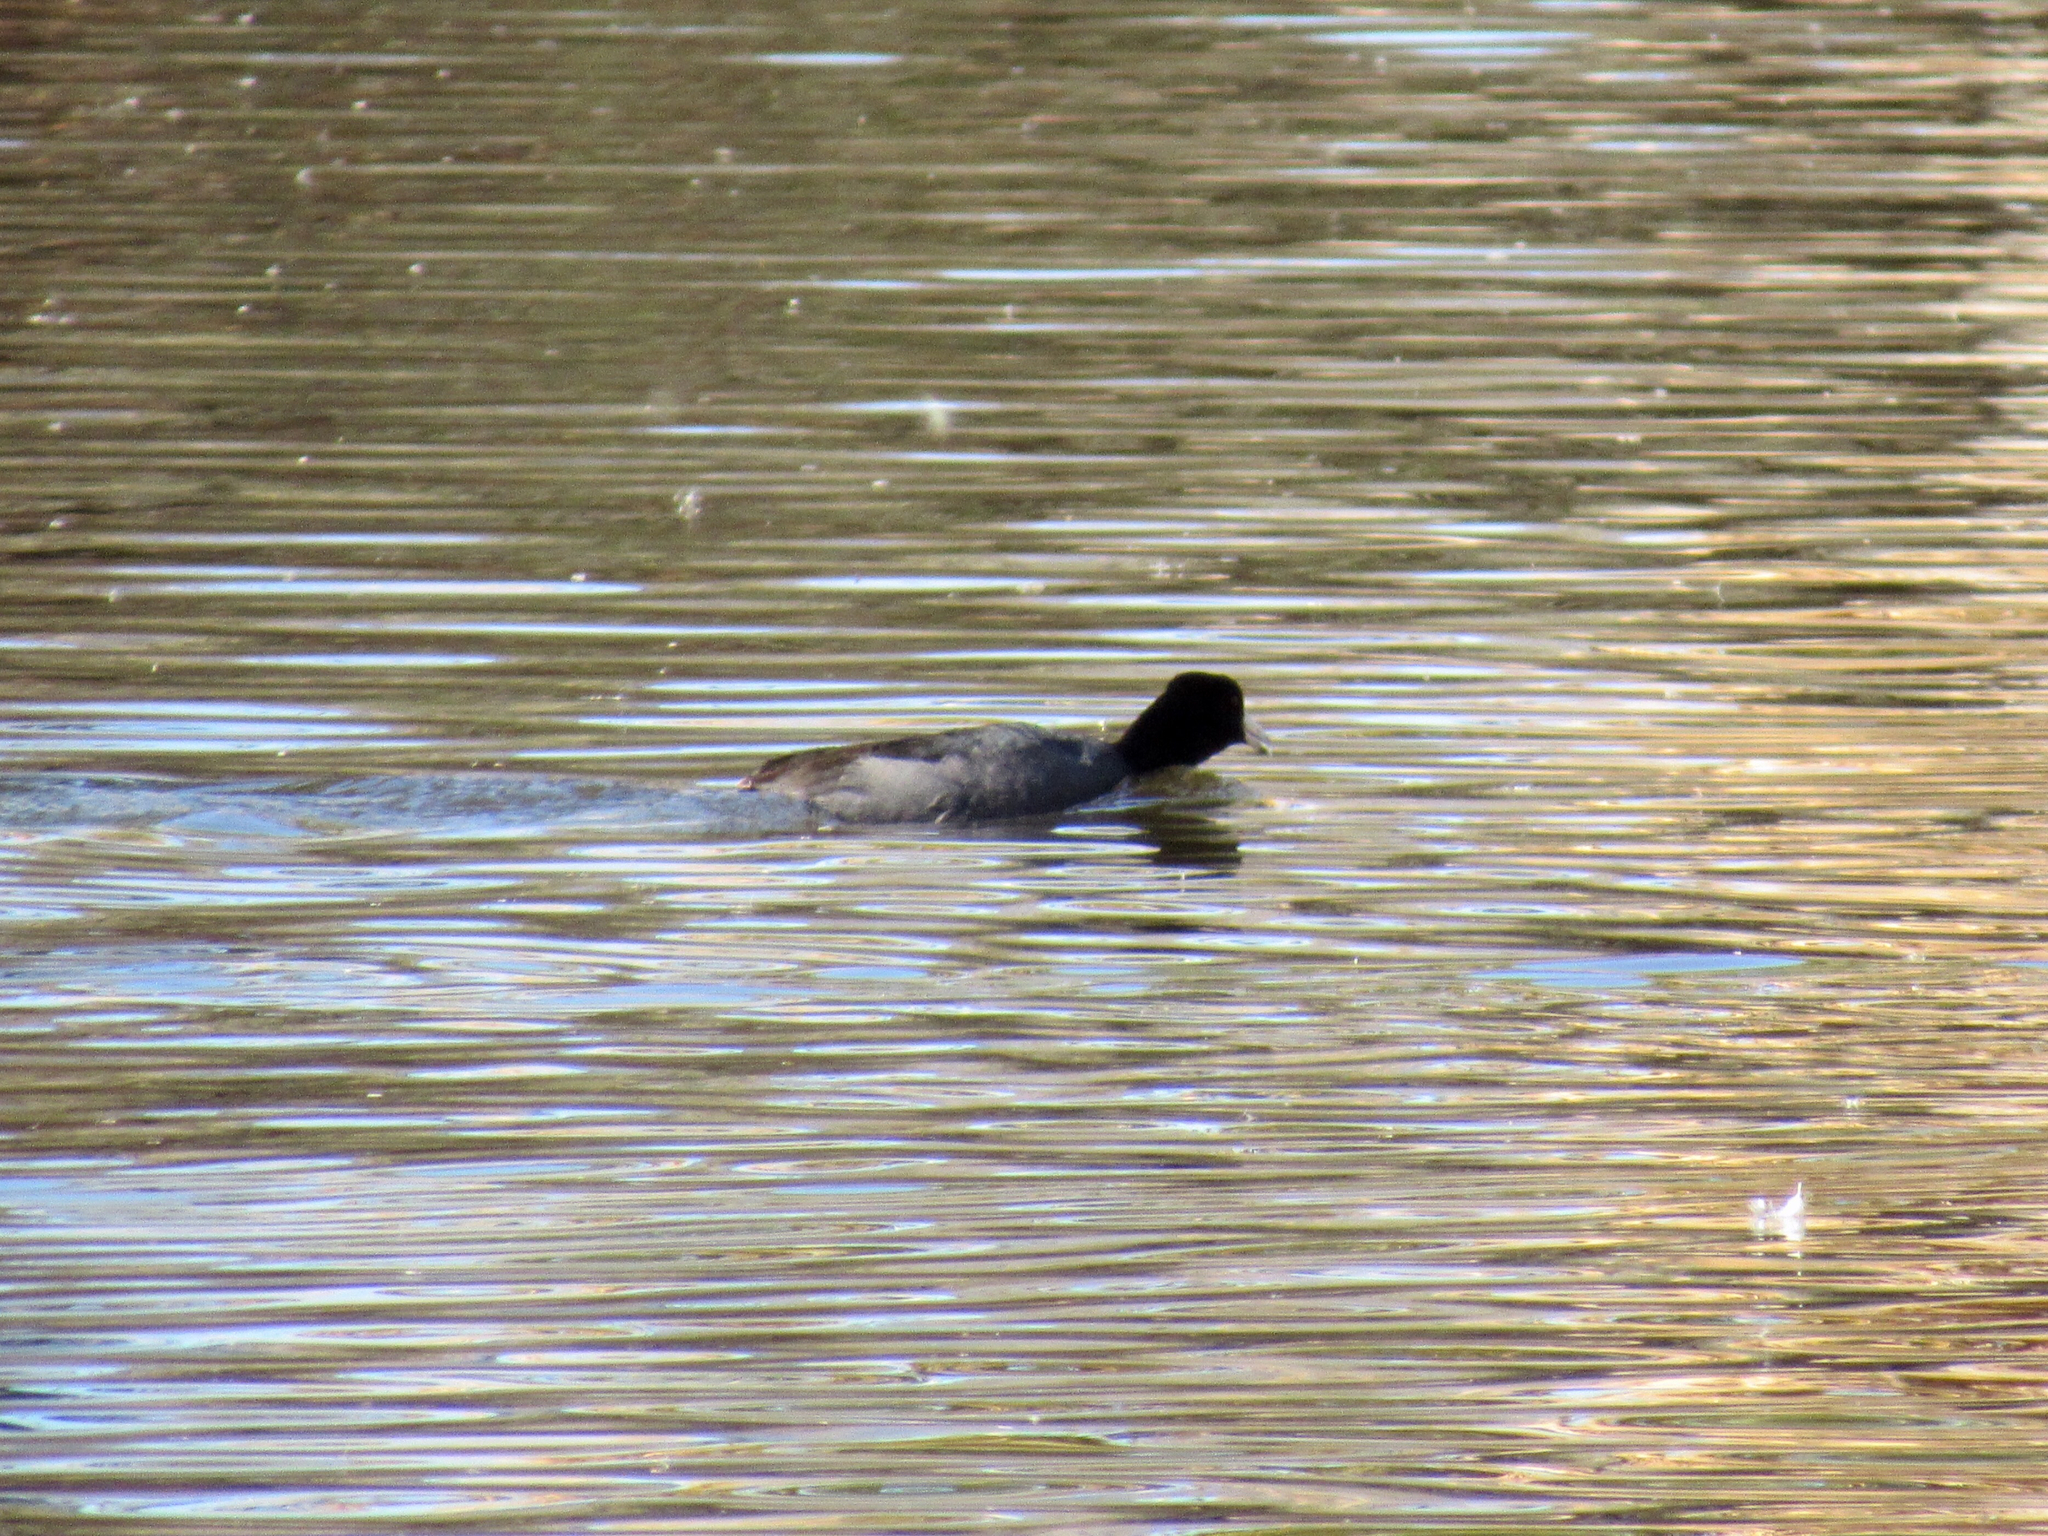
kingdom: Animalia
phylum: Chordata
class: Aves
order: Gruiformes
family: Rallidae
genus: Fulica
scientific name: Fulica americana
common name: American coot
